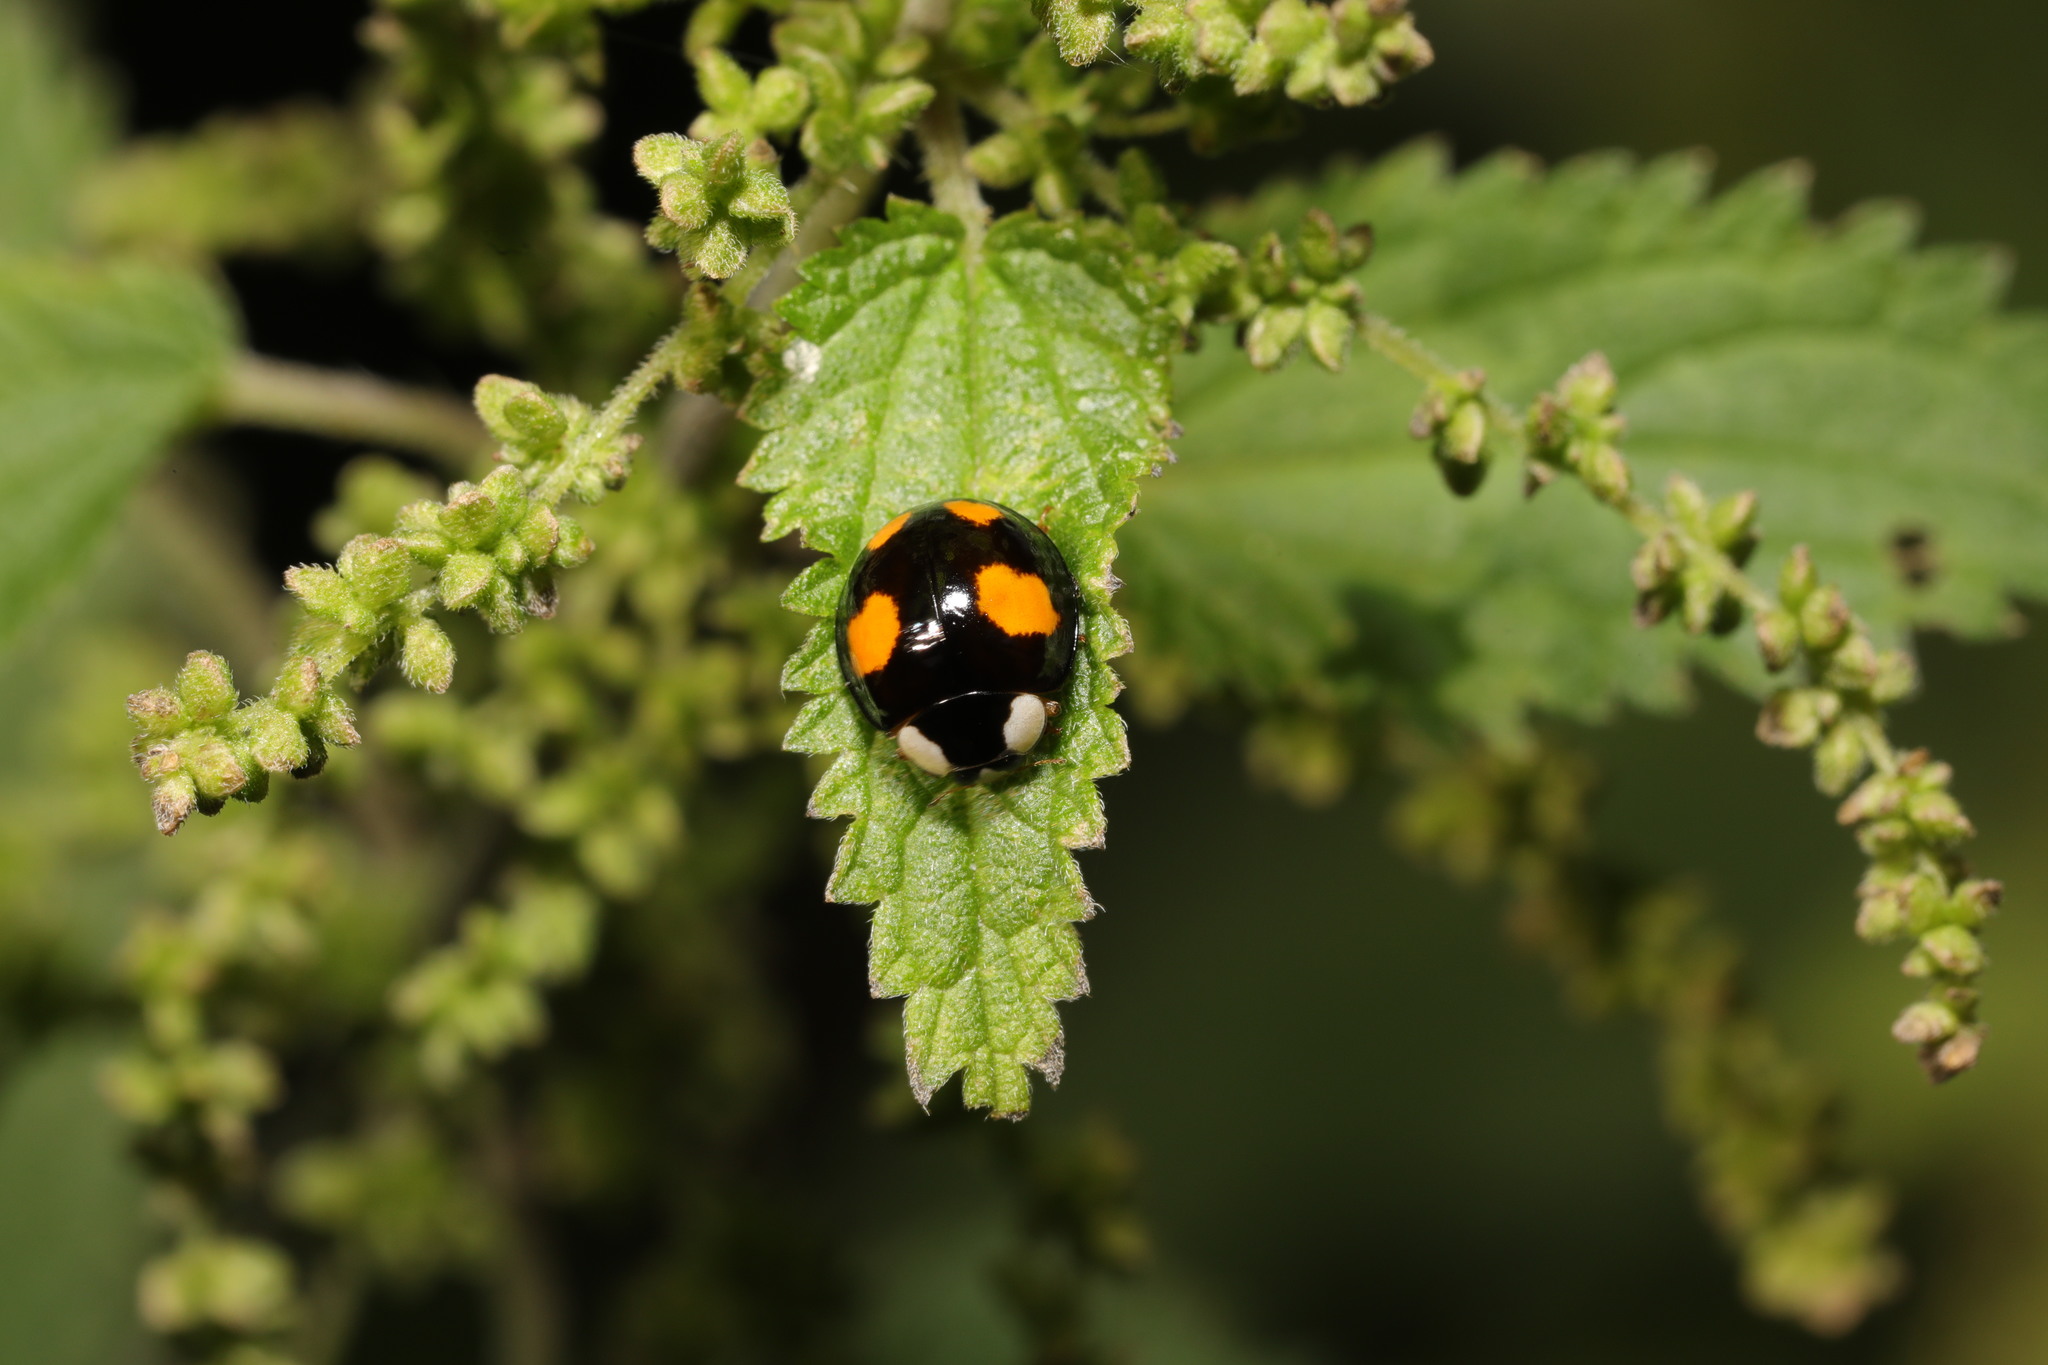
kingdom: Animalia
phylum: Arthropoda
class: Insecta
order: Coleoptera
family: Coccinellidae
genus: Harmonia
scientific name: Harmonia axyridis
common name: Harlequin ladybird
